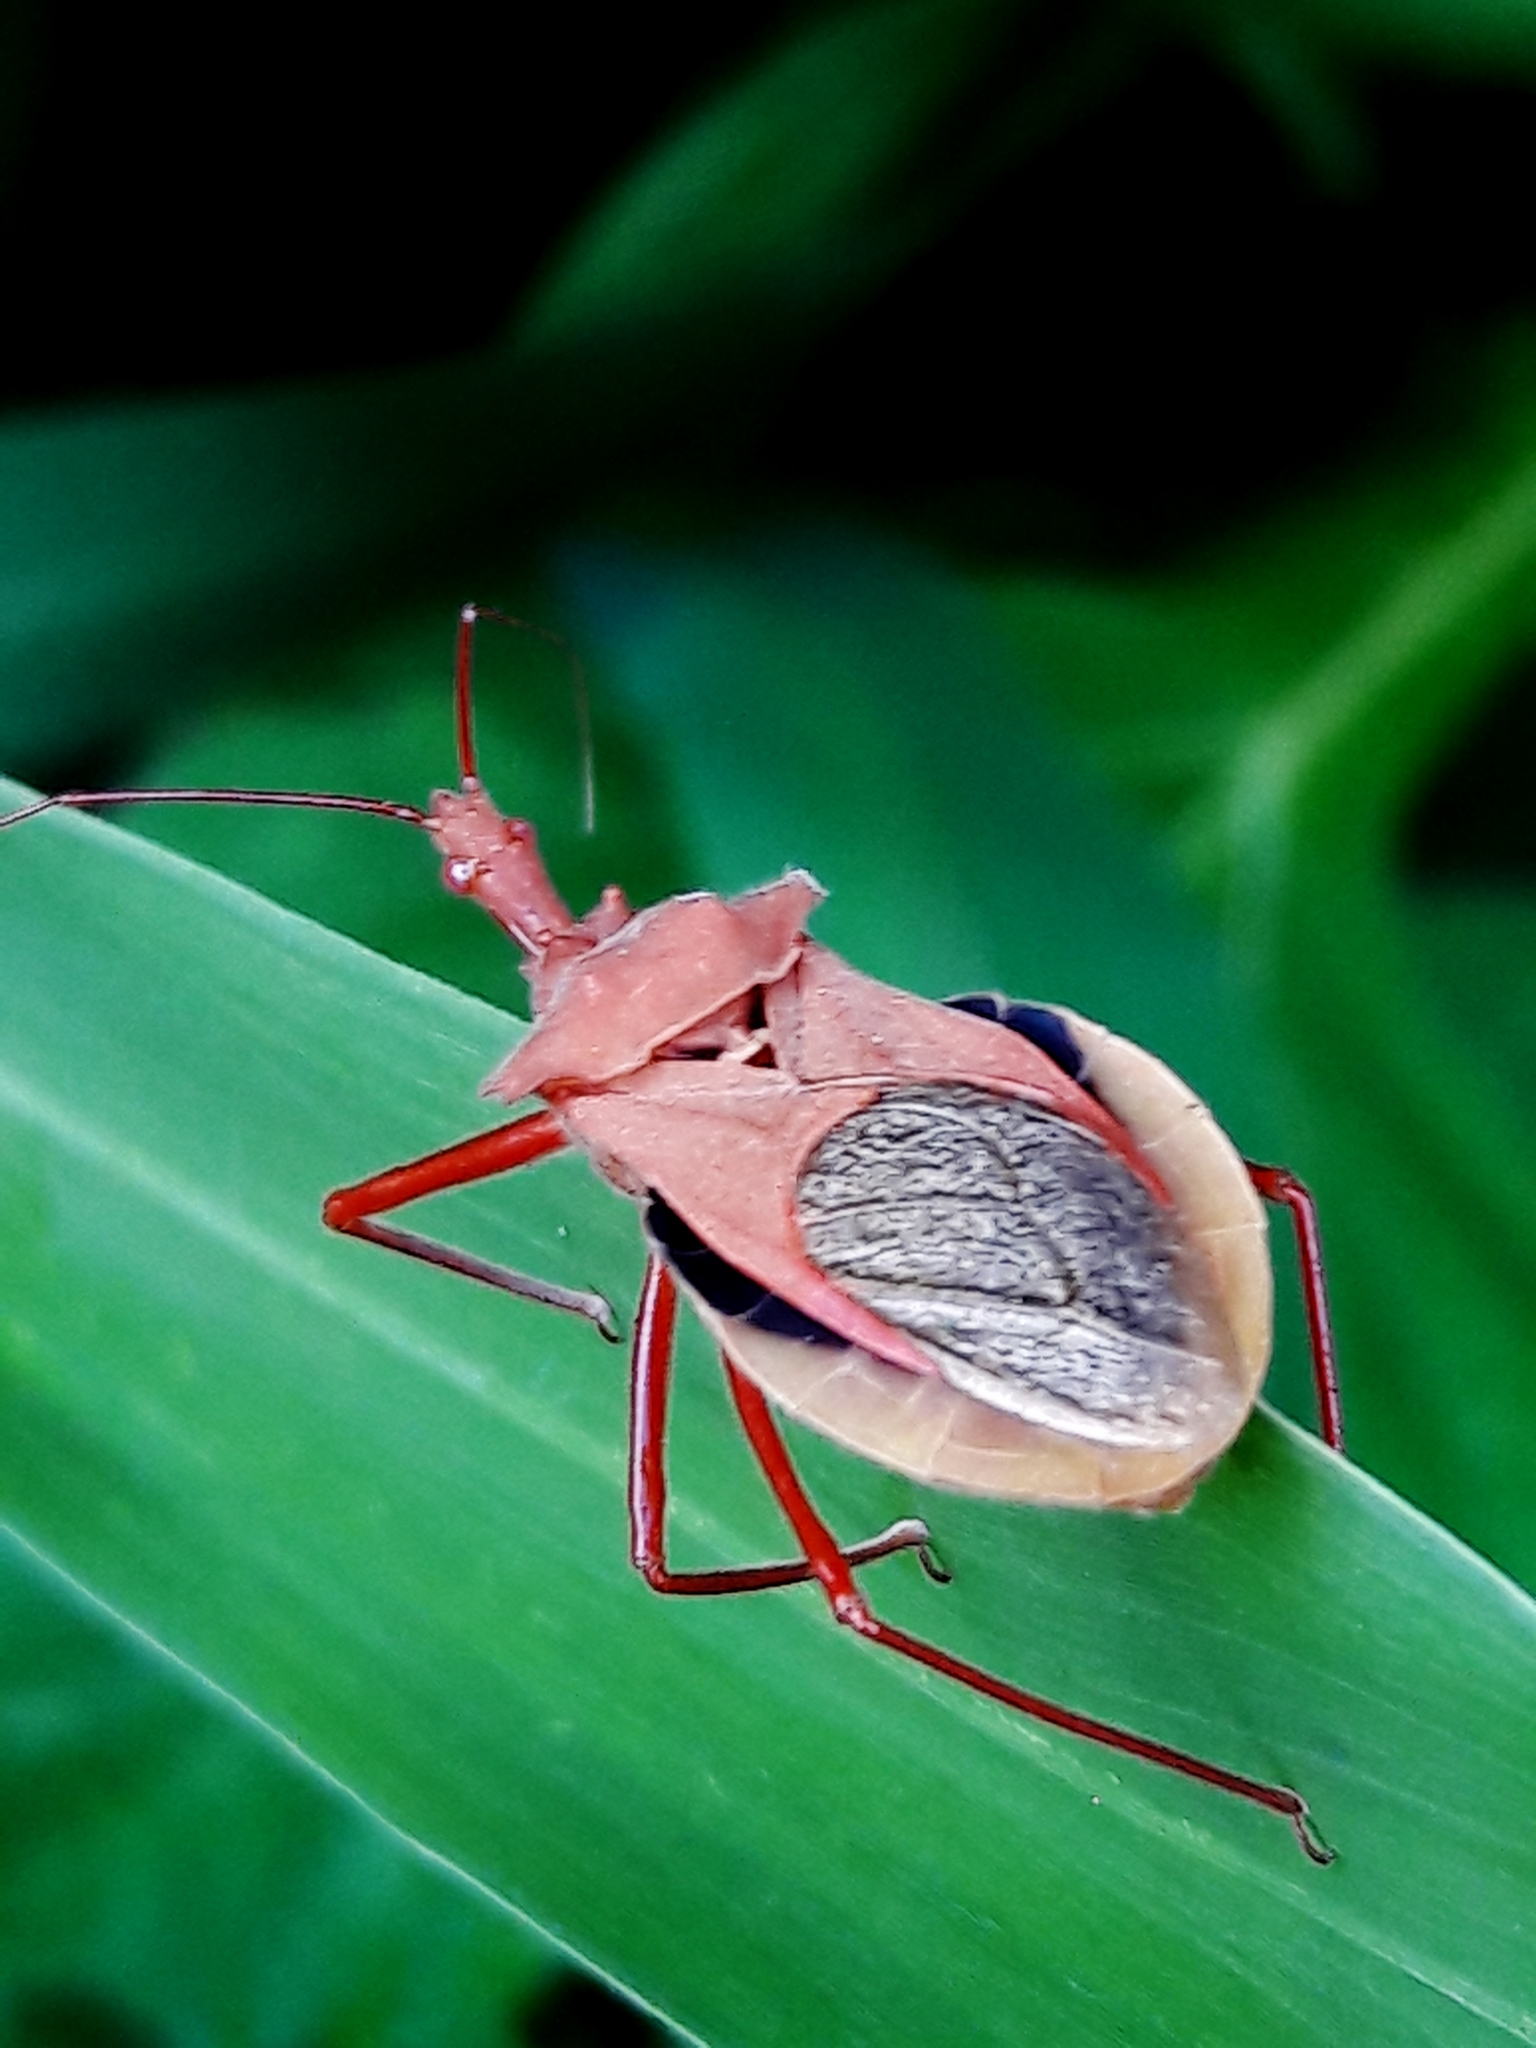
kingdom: Animalia
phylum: Arthropoda
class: Insecta
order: Hemiptera
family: Reduviidae
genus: Montina
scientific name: Montina confusa
